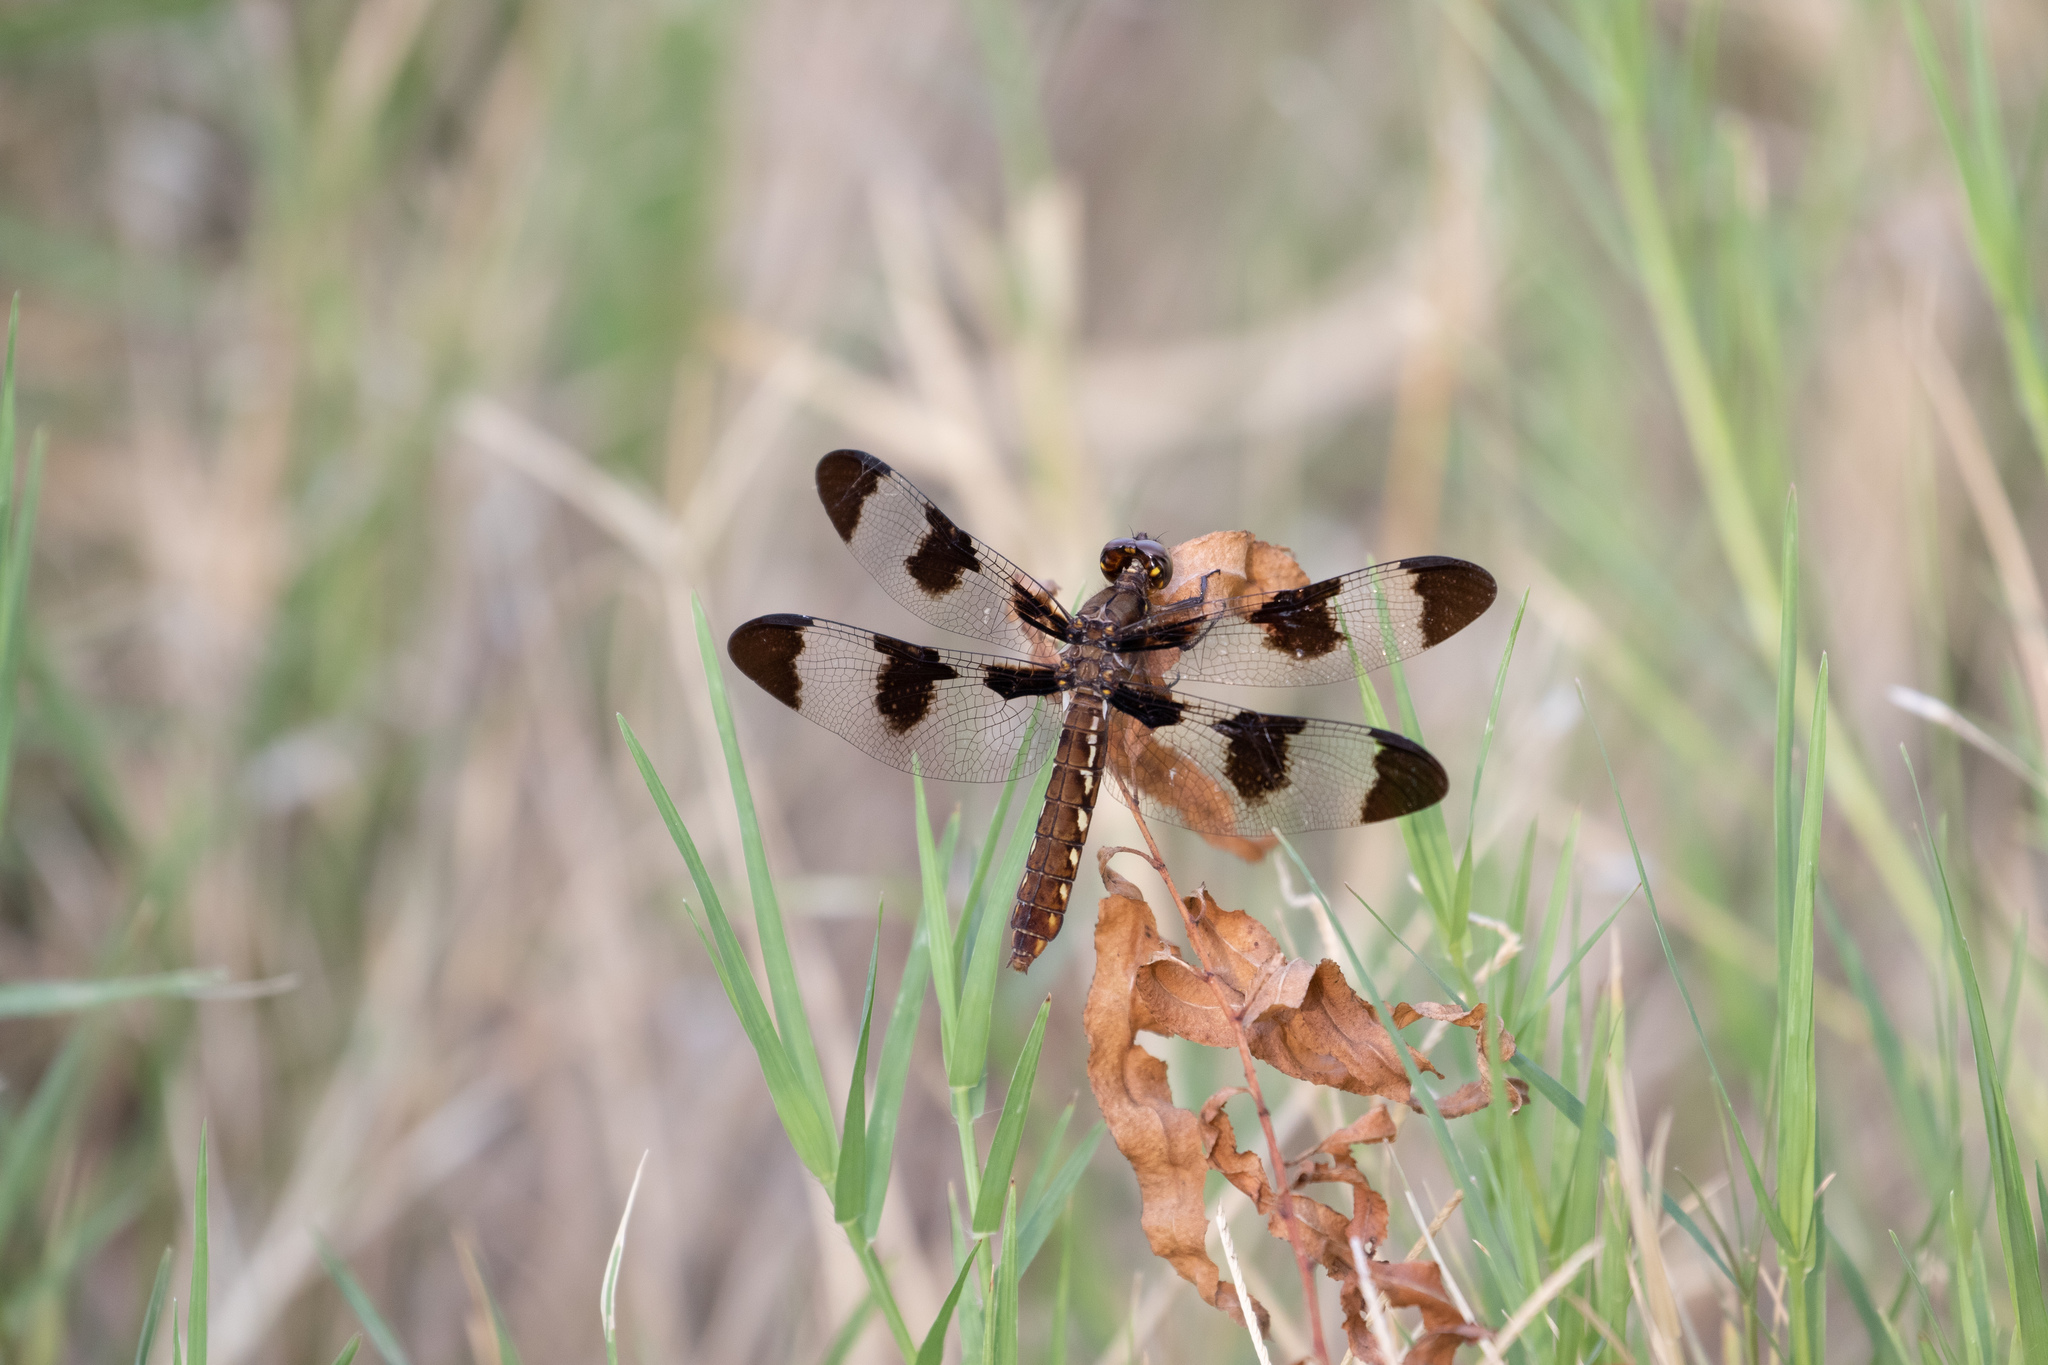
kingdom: Animalia
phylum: Arthropoda
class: Insecta
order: Odonata
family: Libellulidae
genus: Plathemis
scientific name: Plathemis lydia
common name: Common whitetail
